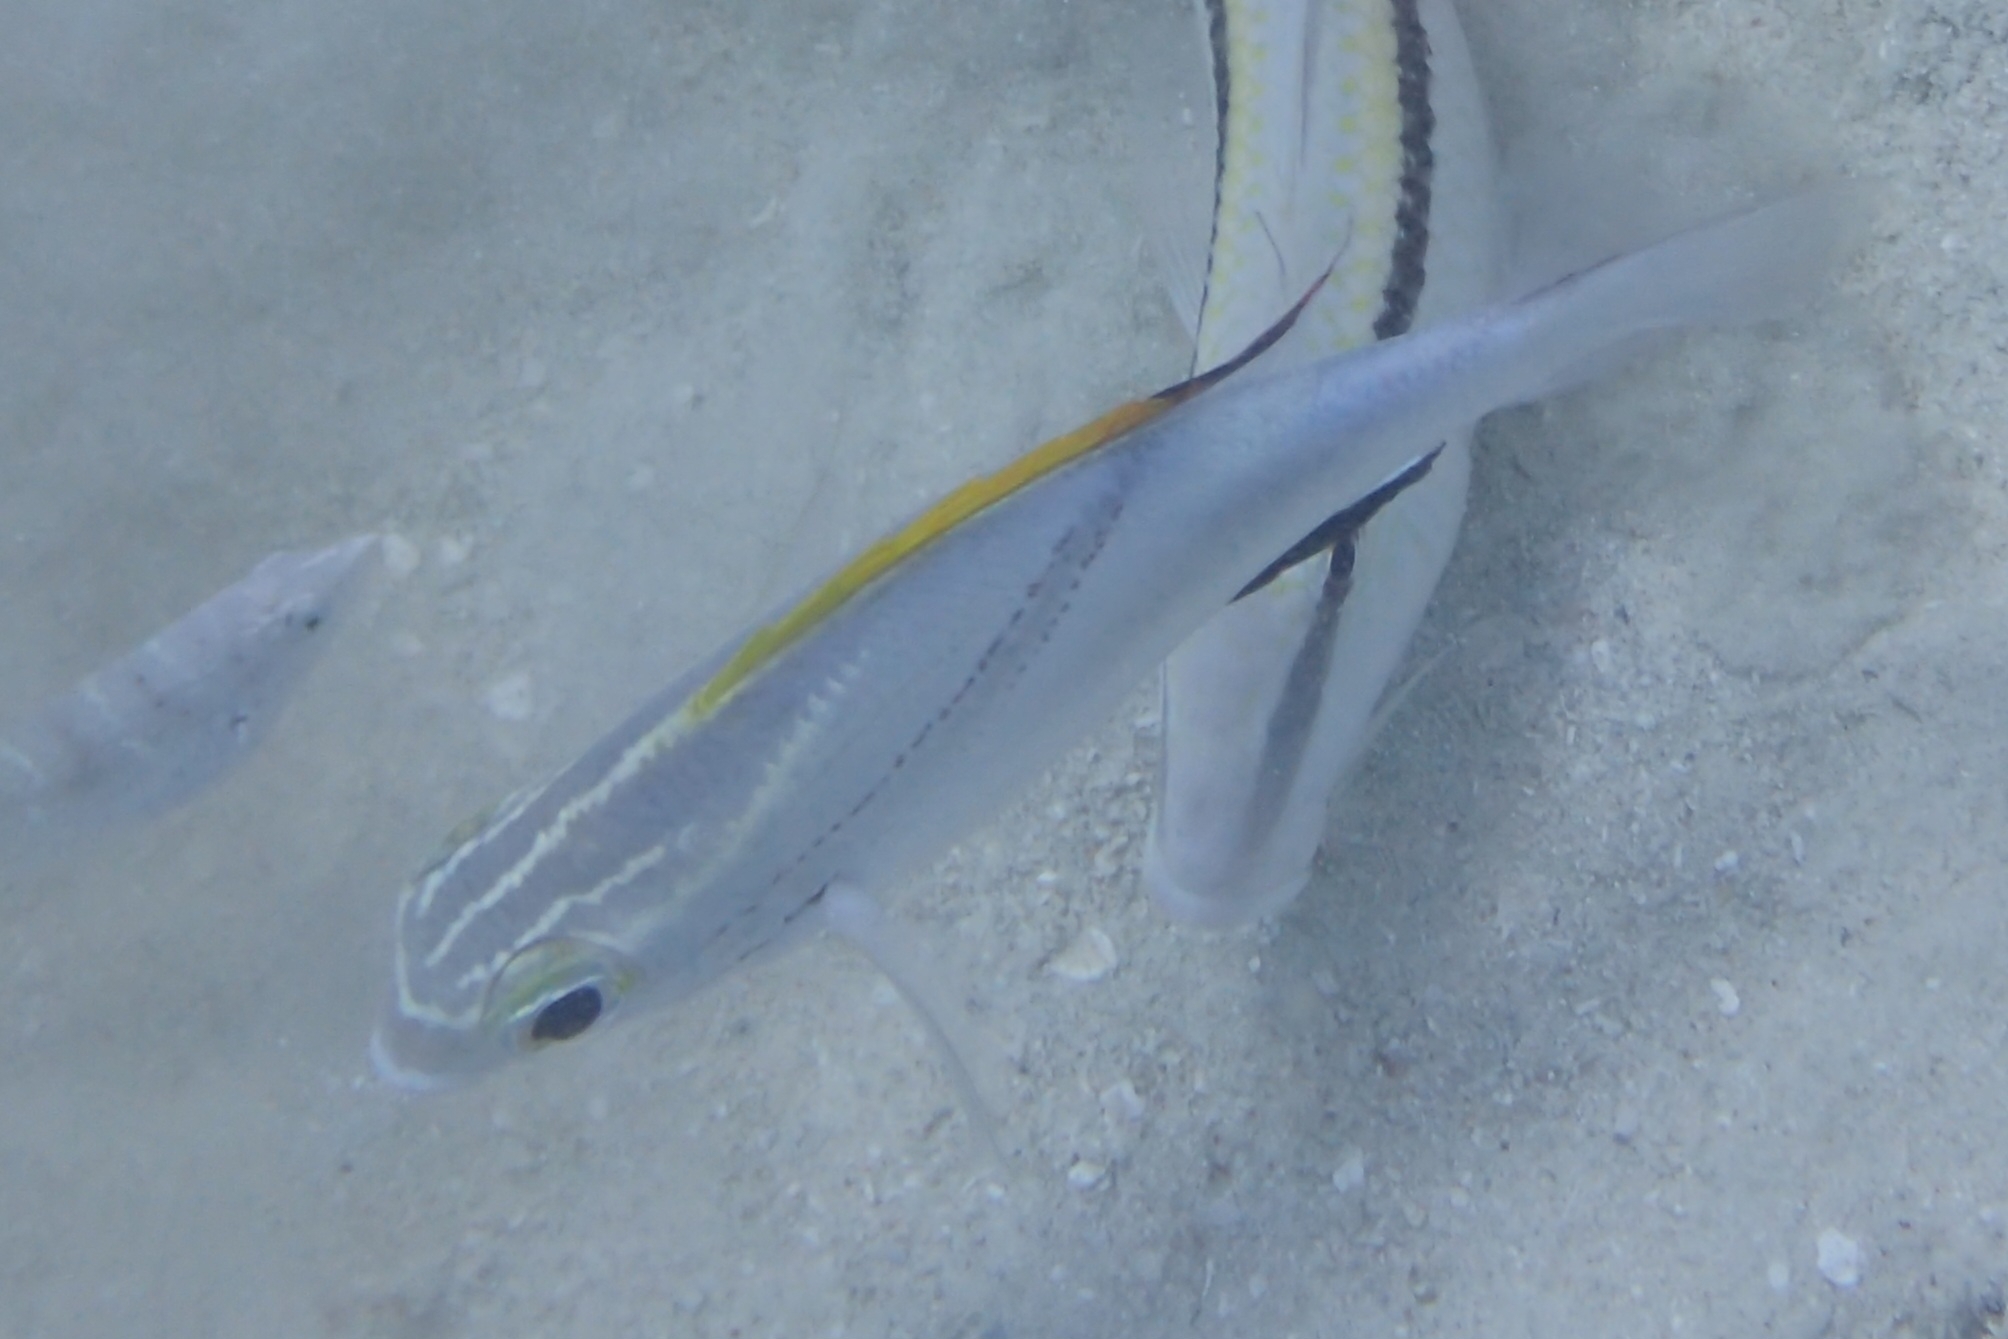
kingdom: Animalia
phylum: Chordata
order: Perciformes
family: Nemipteridae
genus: Scolopsis
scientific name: Scolopsis bilineata
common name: Two-lined monocle bream
